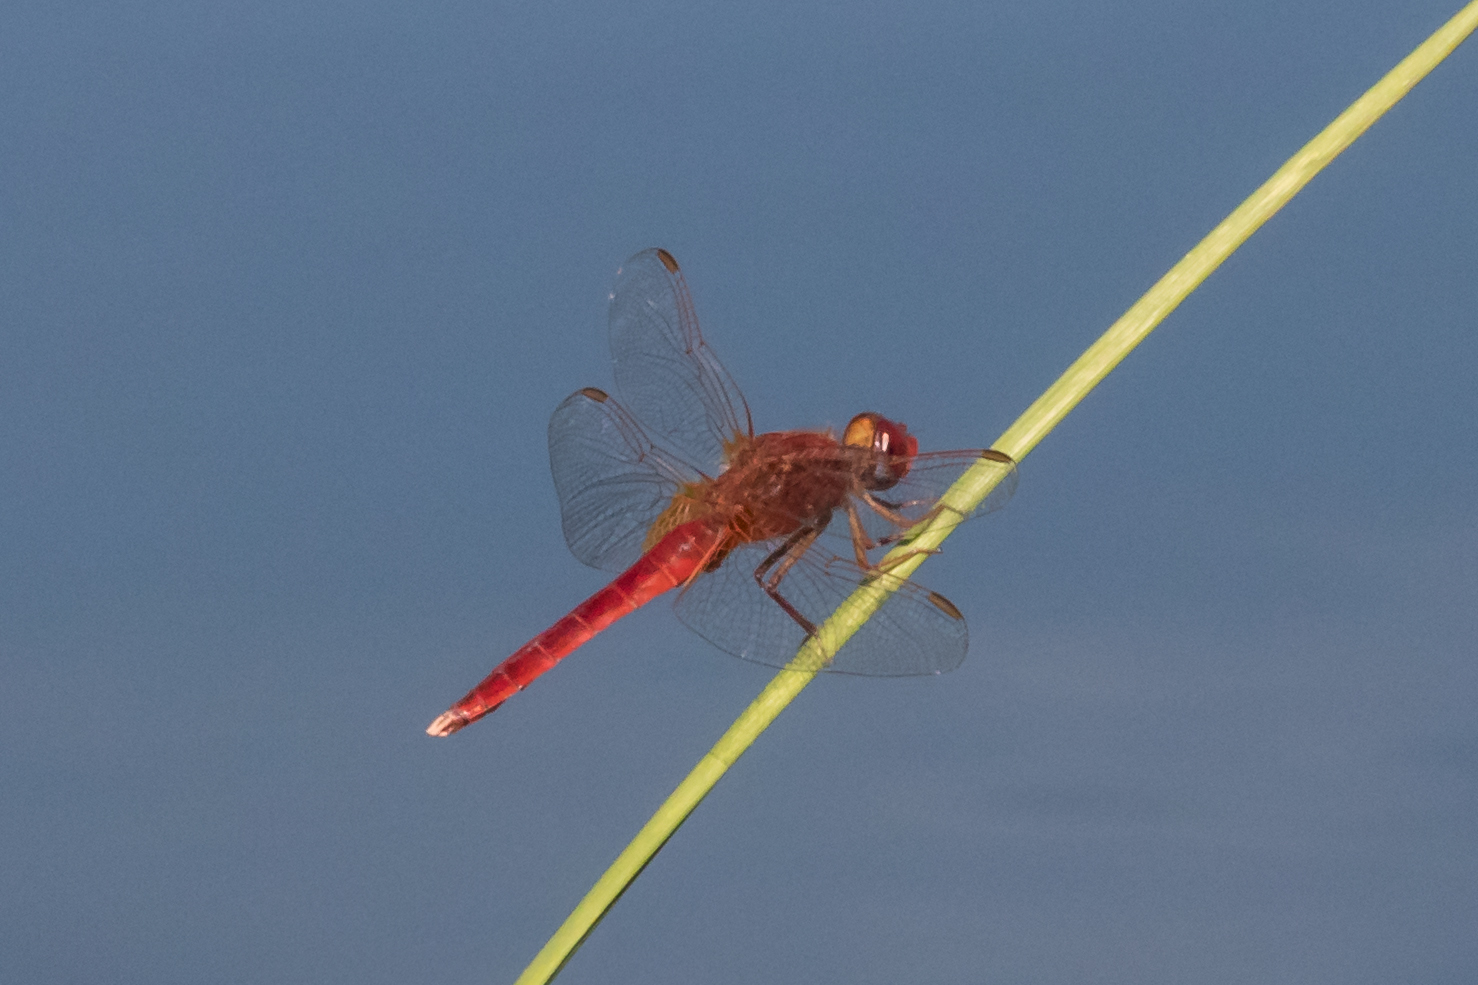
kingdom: Animalia
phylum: Arthropoda
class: Insecta
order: Odonata
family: Libellulidae
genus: Crocothemis
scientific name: Crocothemis erythraea
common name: Scarlet dragonfly
